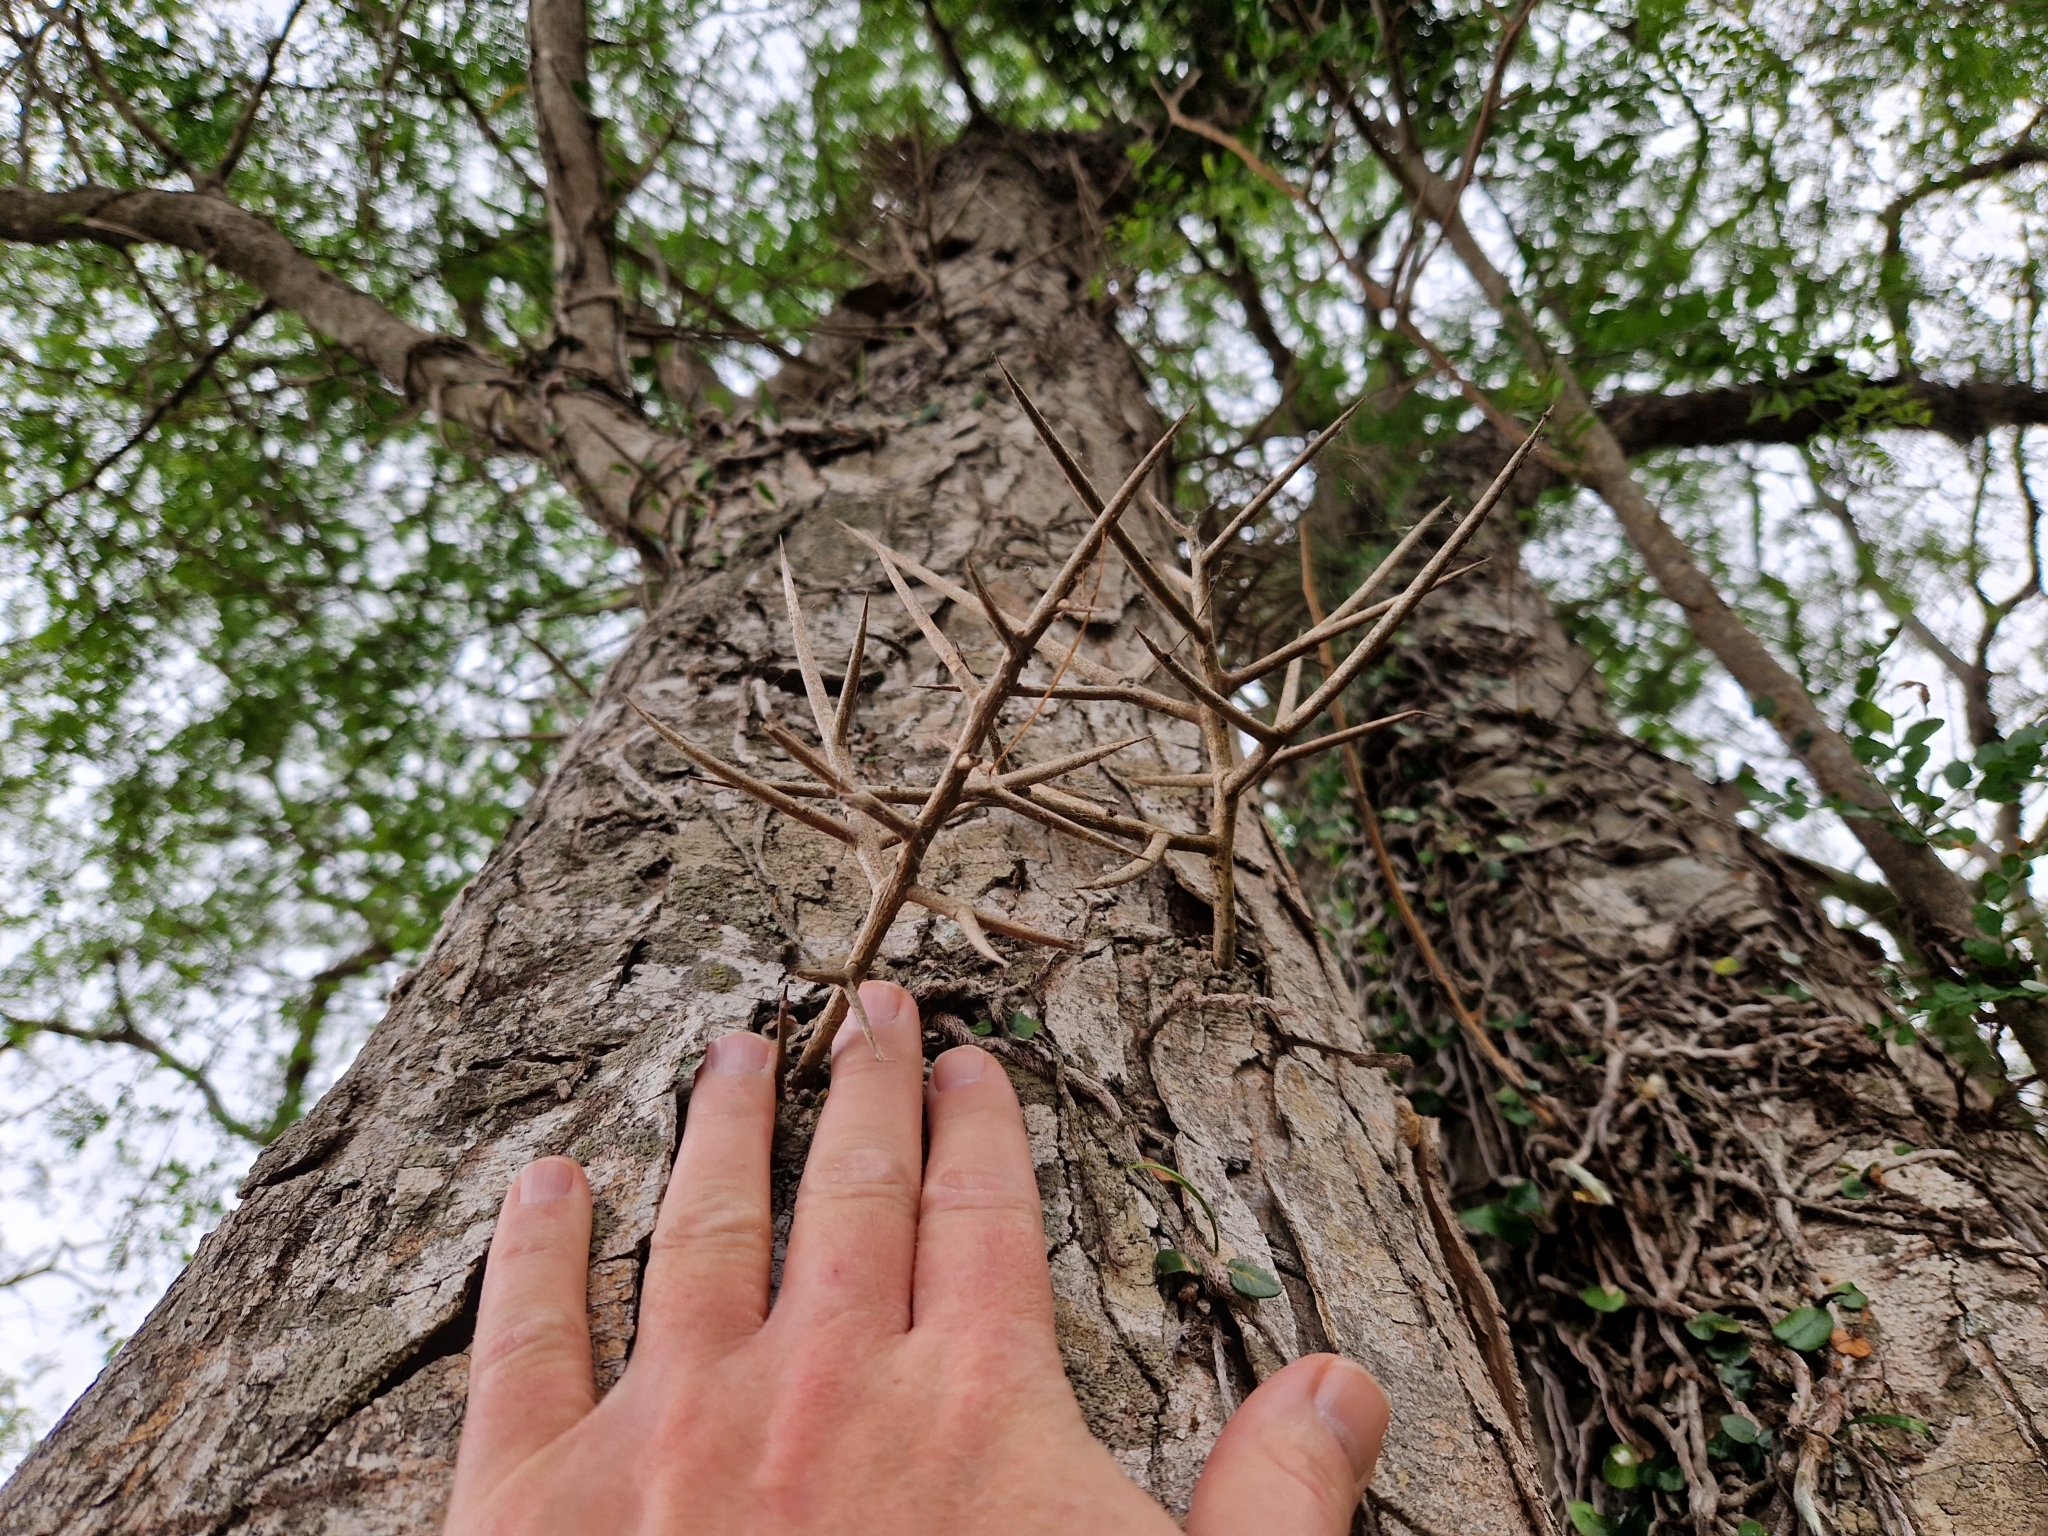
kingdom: Plantae
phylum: Tracheophyta
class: Magnoliopsida
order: Fabales
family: Fabaceae
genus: Gleditsia
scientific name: Gleditsia amorphoides
